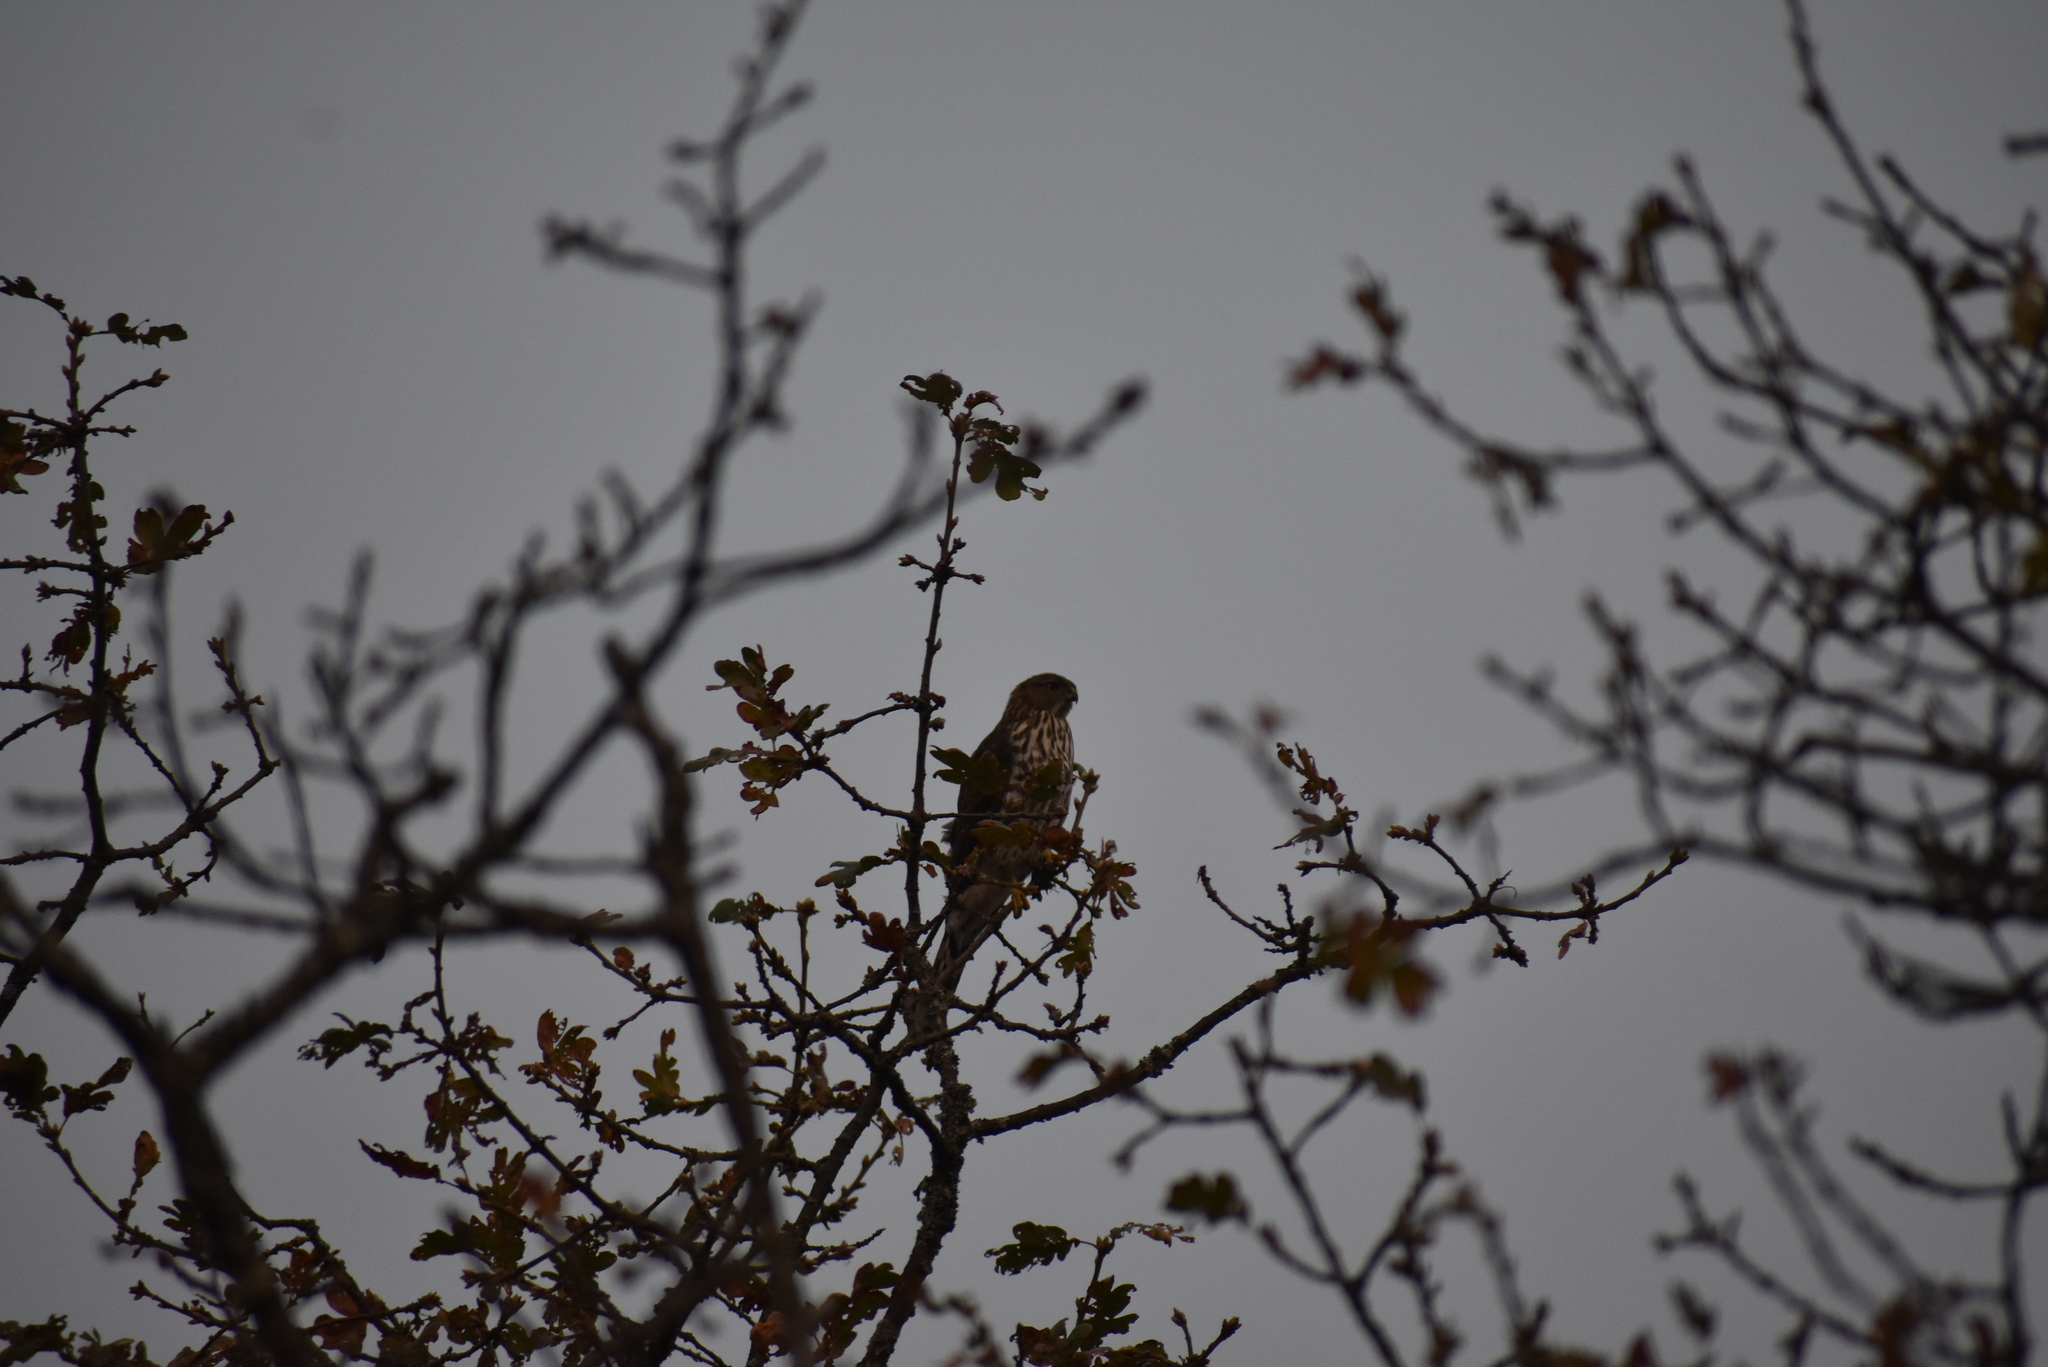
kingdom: Animalia
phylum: Chordata
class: Aves
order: Accipitriformes
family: Accipitridae
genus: Accipiter
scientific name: Accipiter cooperii
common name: Cooper's hawk
